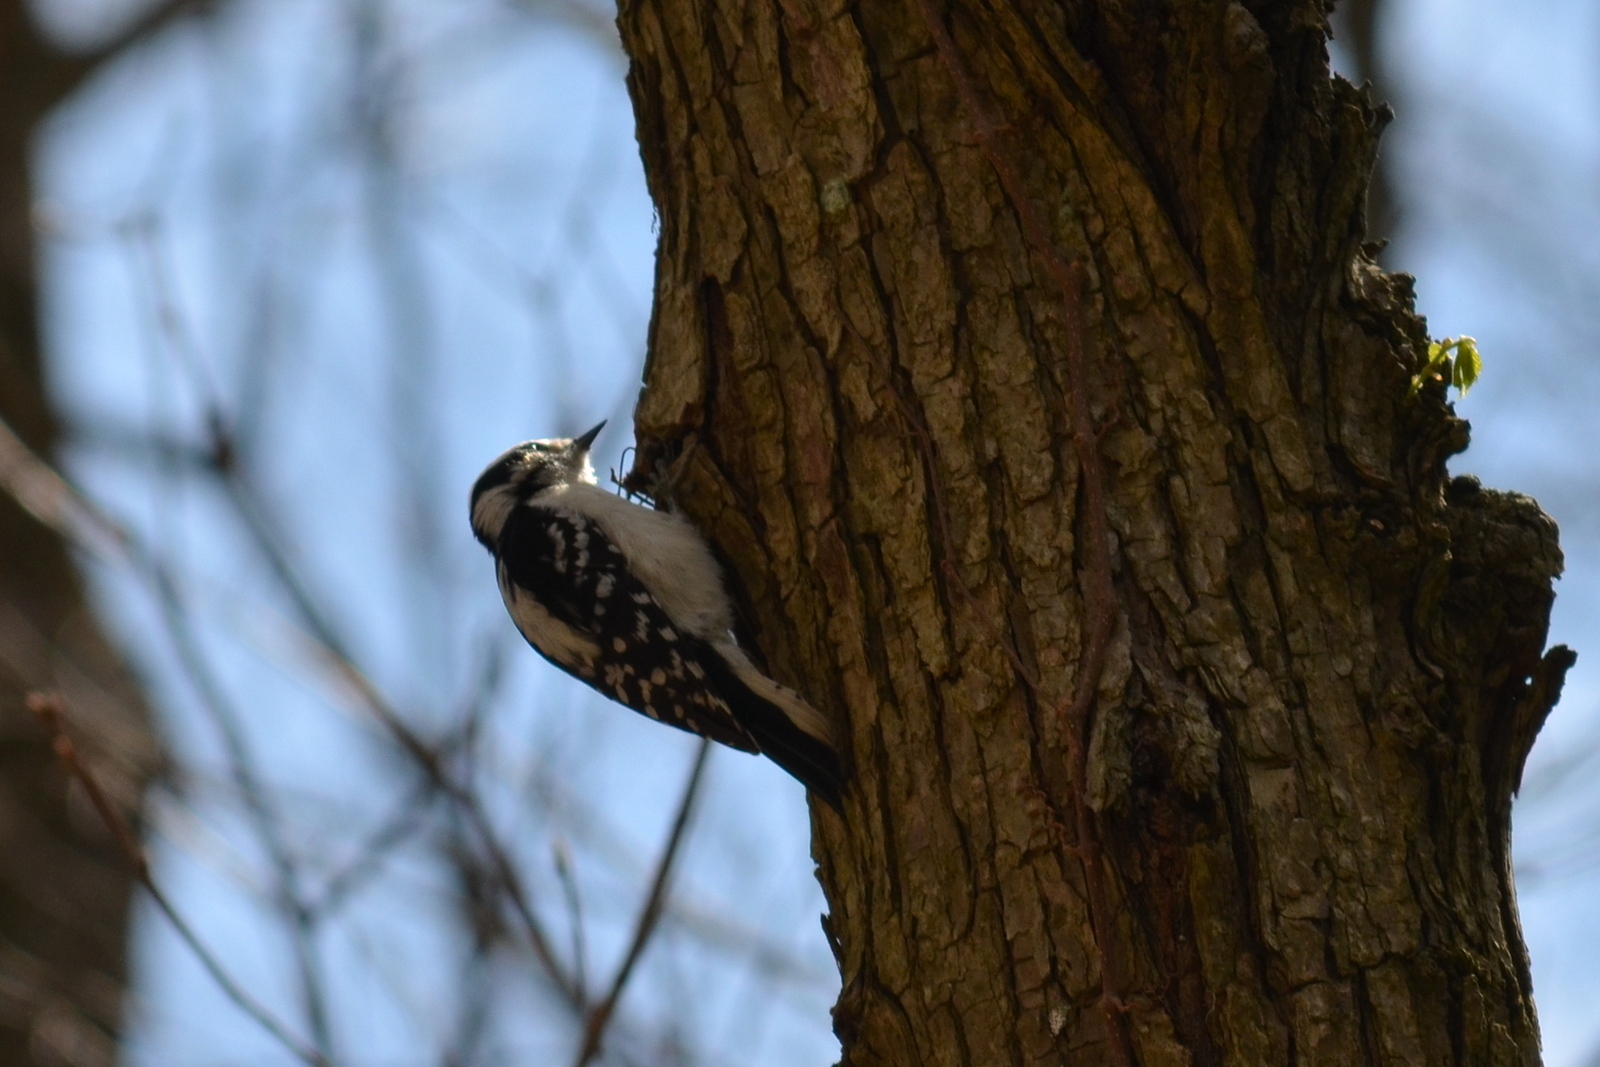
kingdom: Animalia
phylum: Chordata
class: Aves
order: Piciformes
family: Picidae
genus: Dryobates
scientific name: Dryobates pubescens
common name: Downy woodpecker
